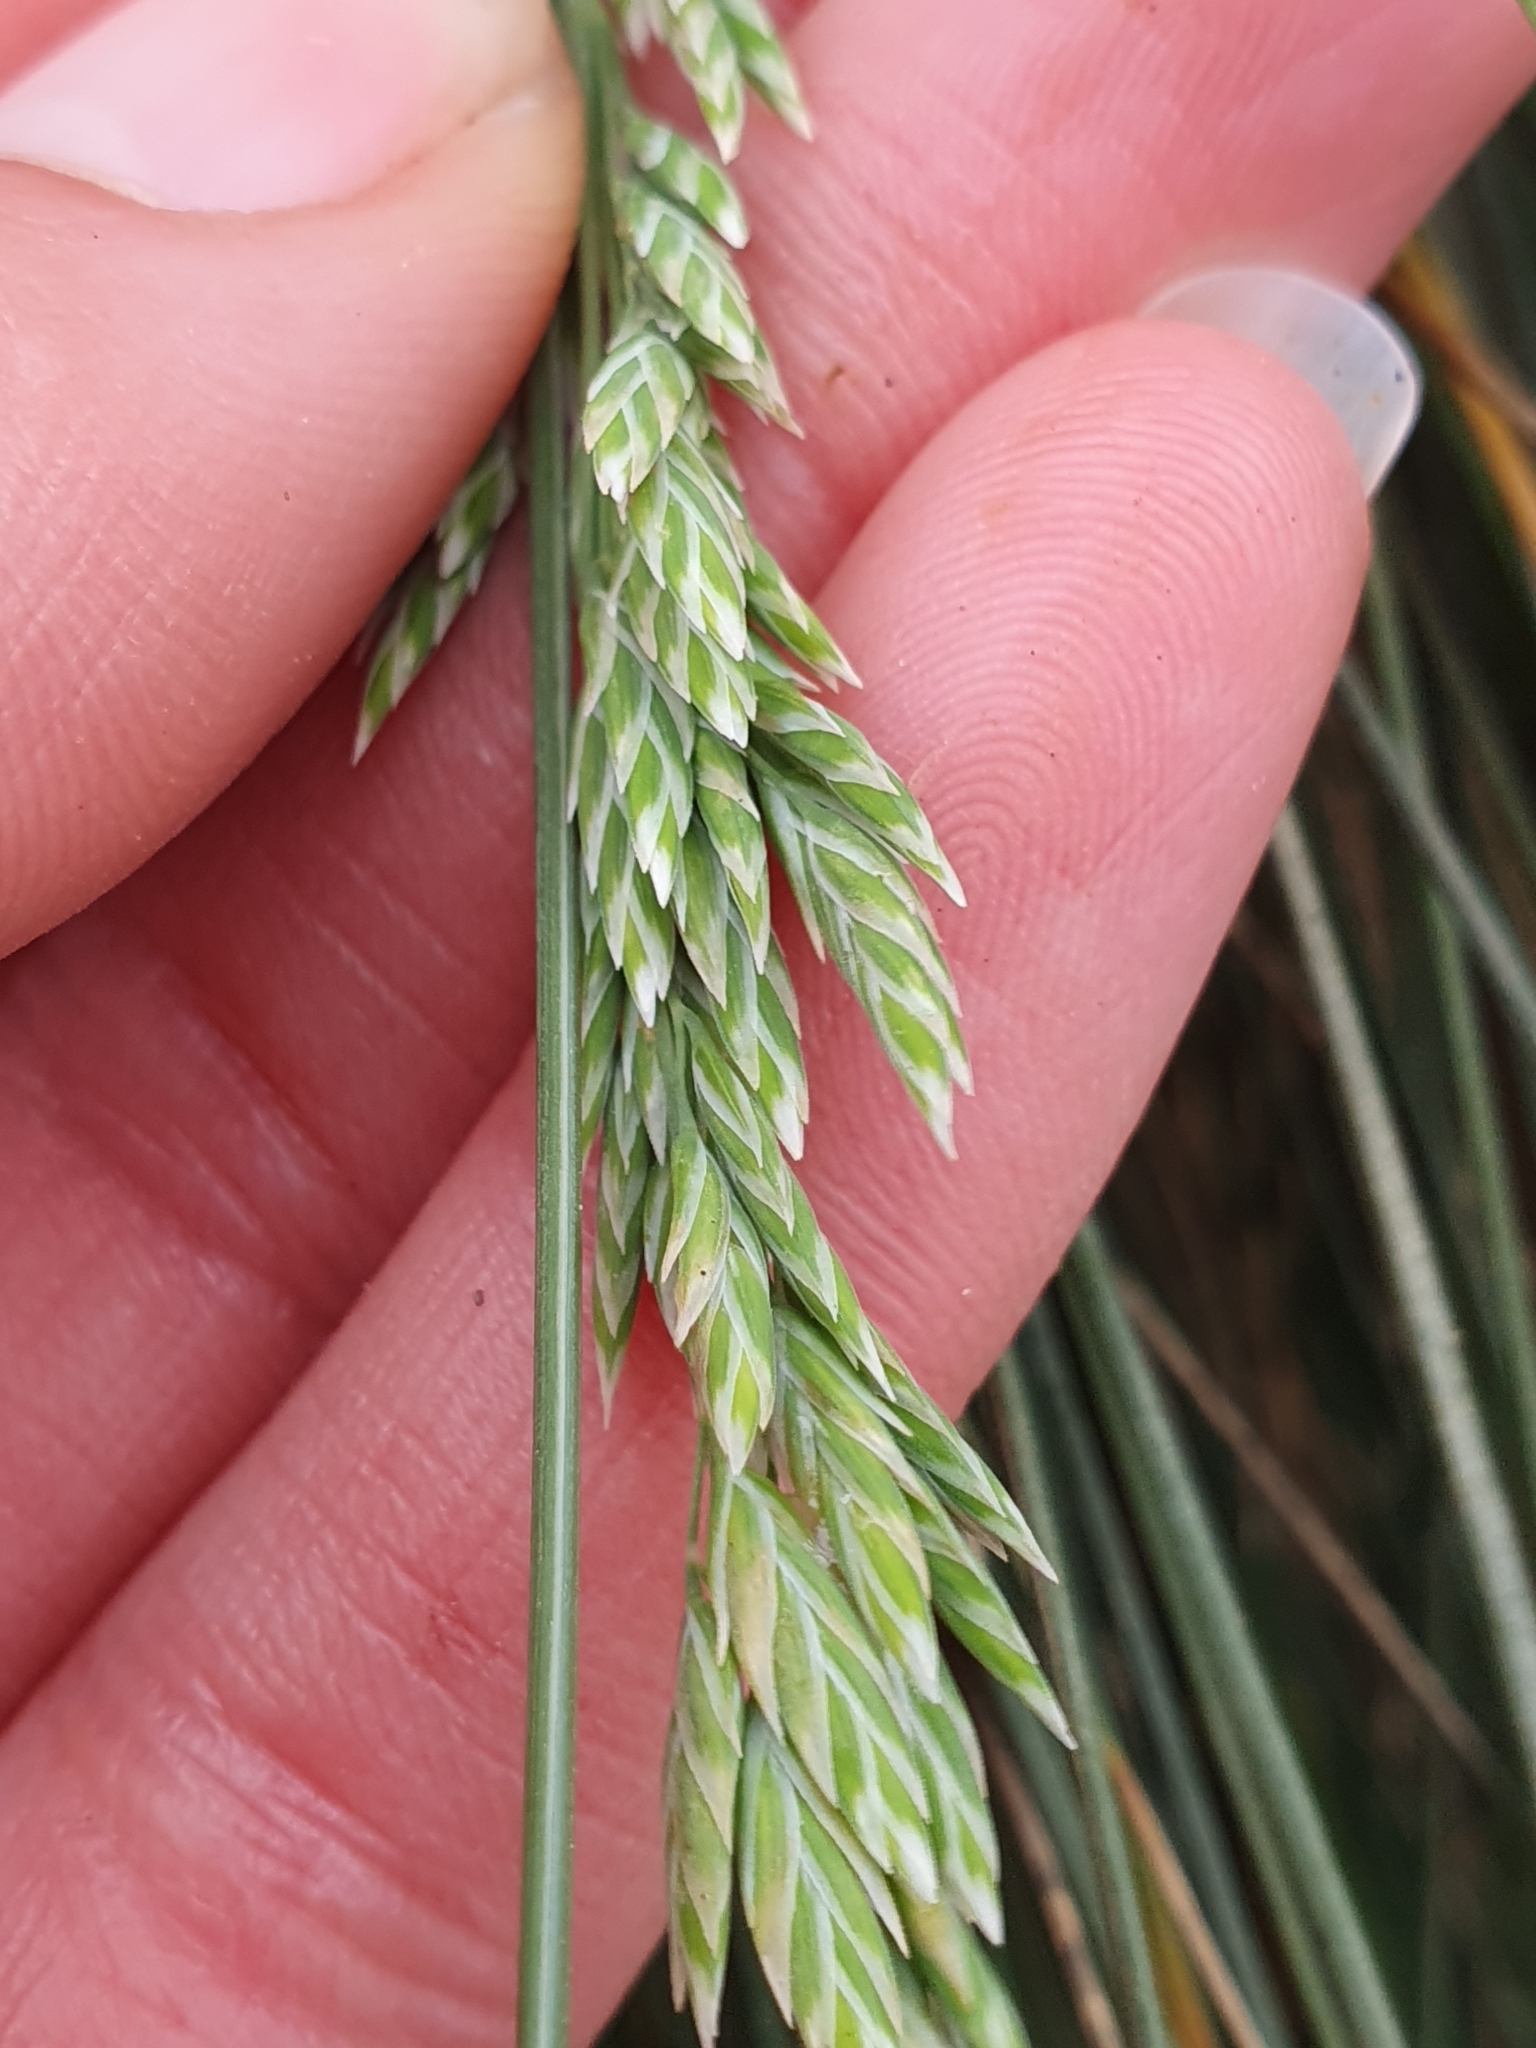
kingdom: Plantae
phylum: Tracheophyta
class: Liliopsida
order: Poales
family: Poaceae
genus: Poa
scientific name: Poa astonii
